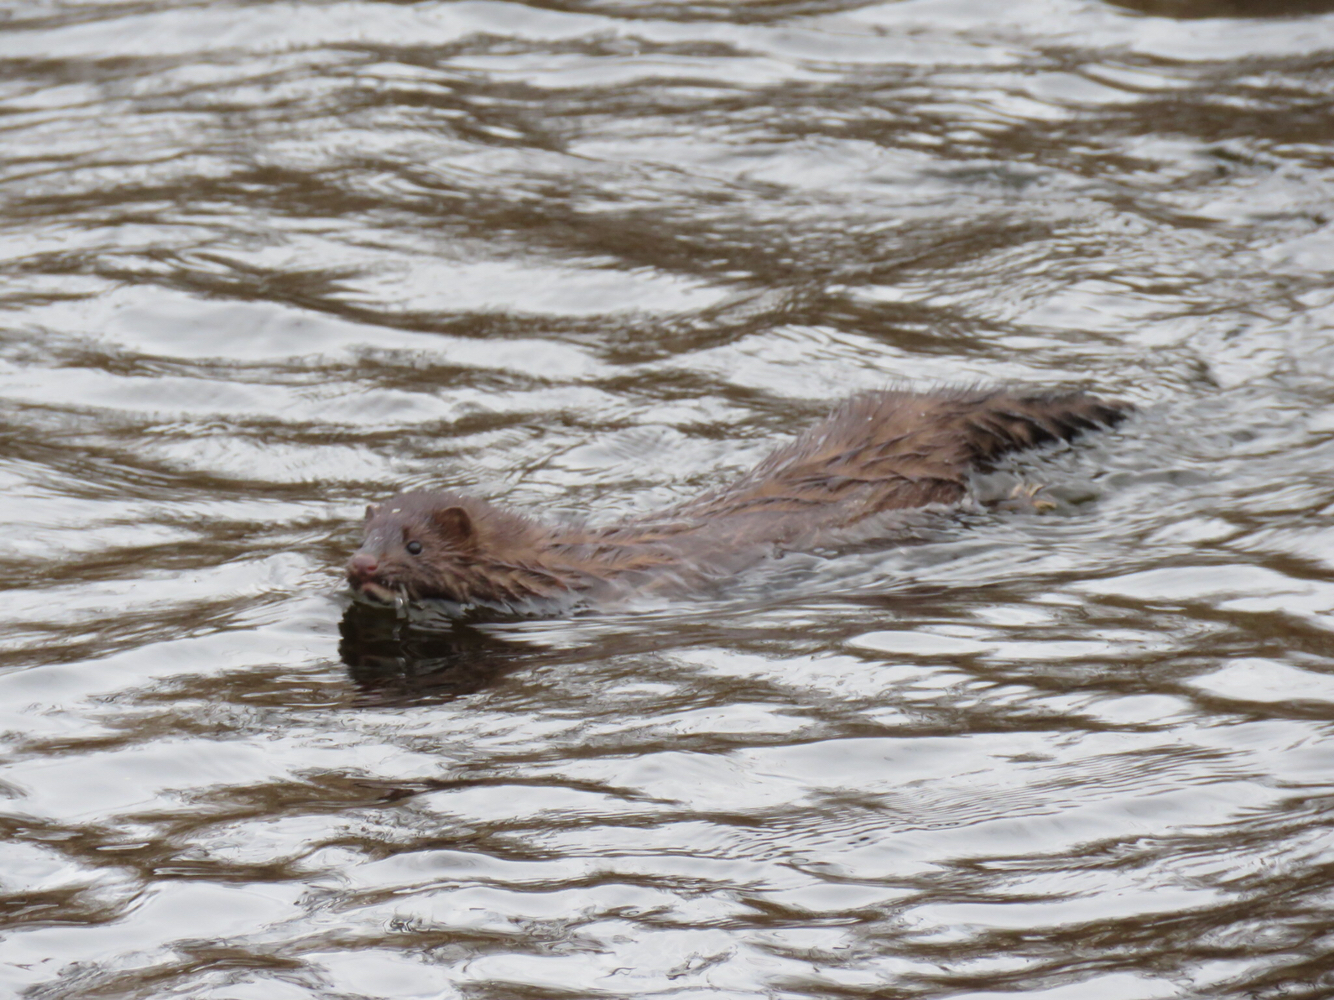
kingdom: Animalia
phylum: Chordata
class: Mammalia
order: Carnivora
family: Mustelidae
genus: Mustela
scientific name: Mustela
